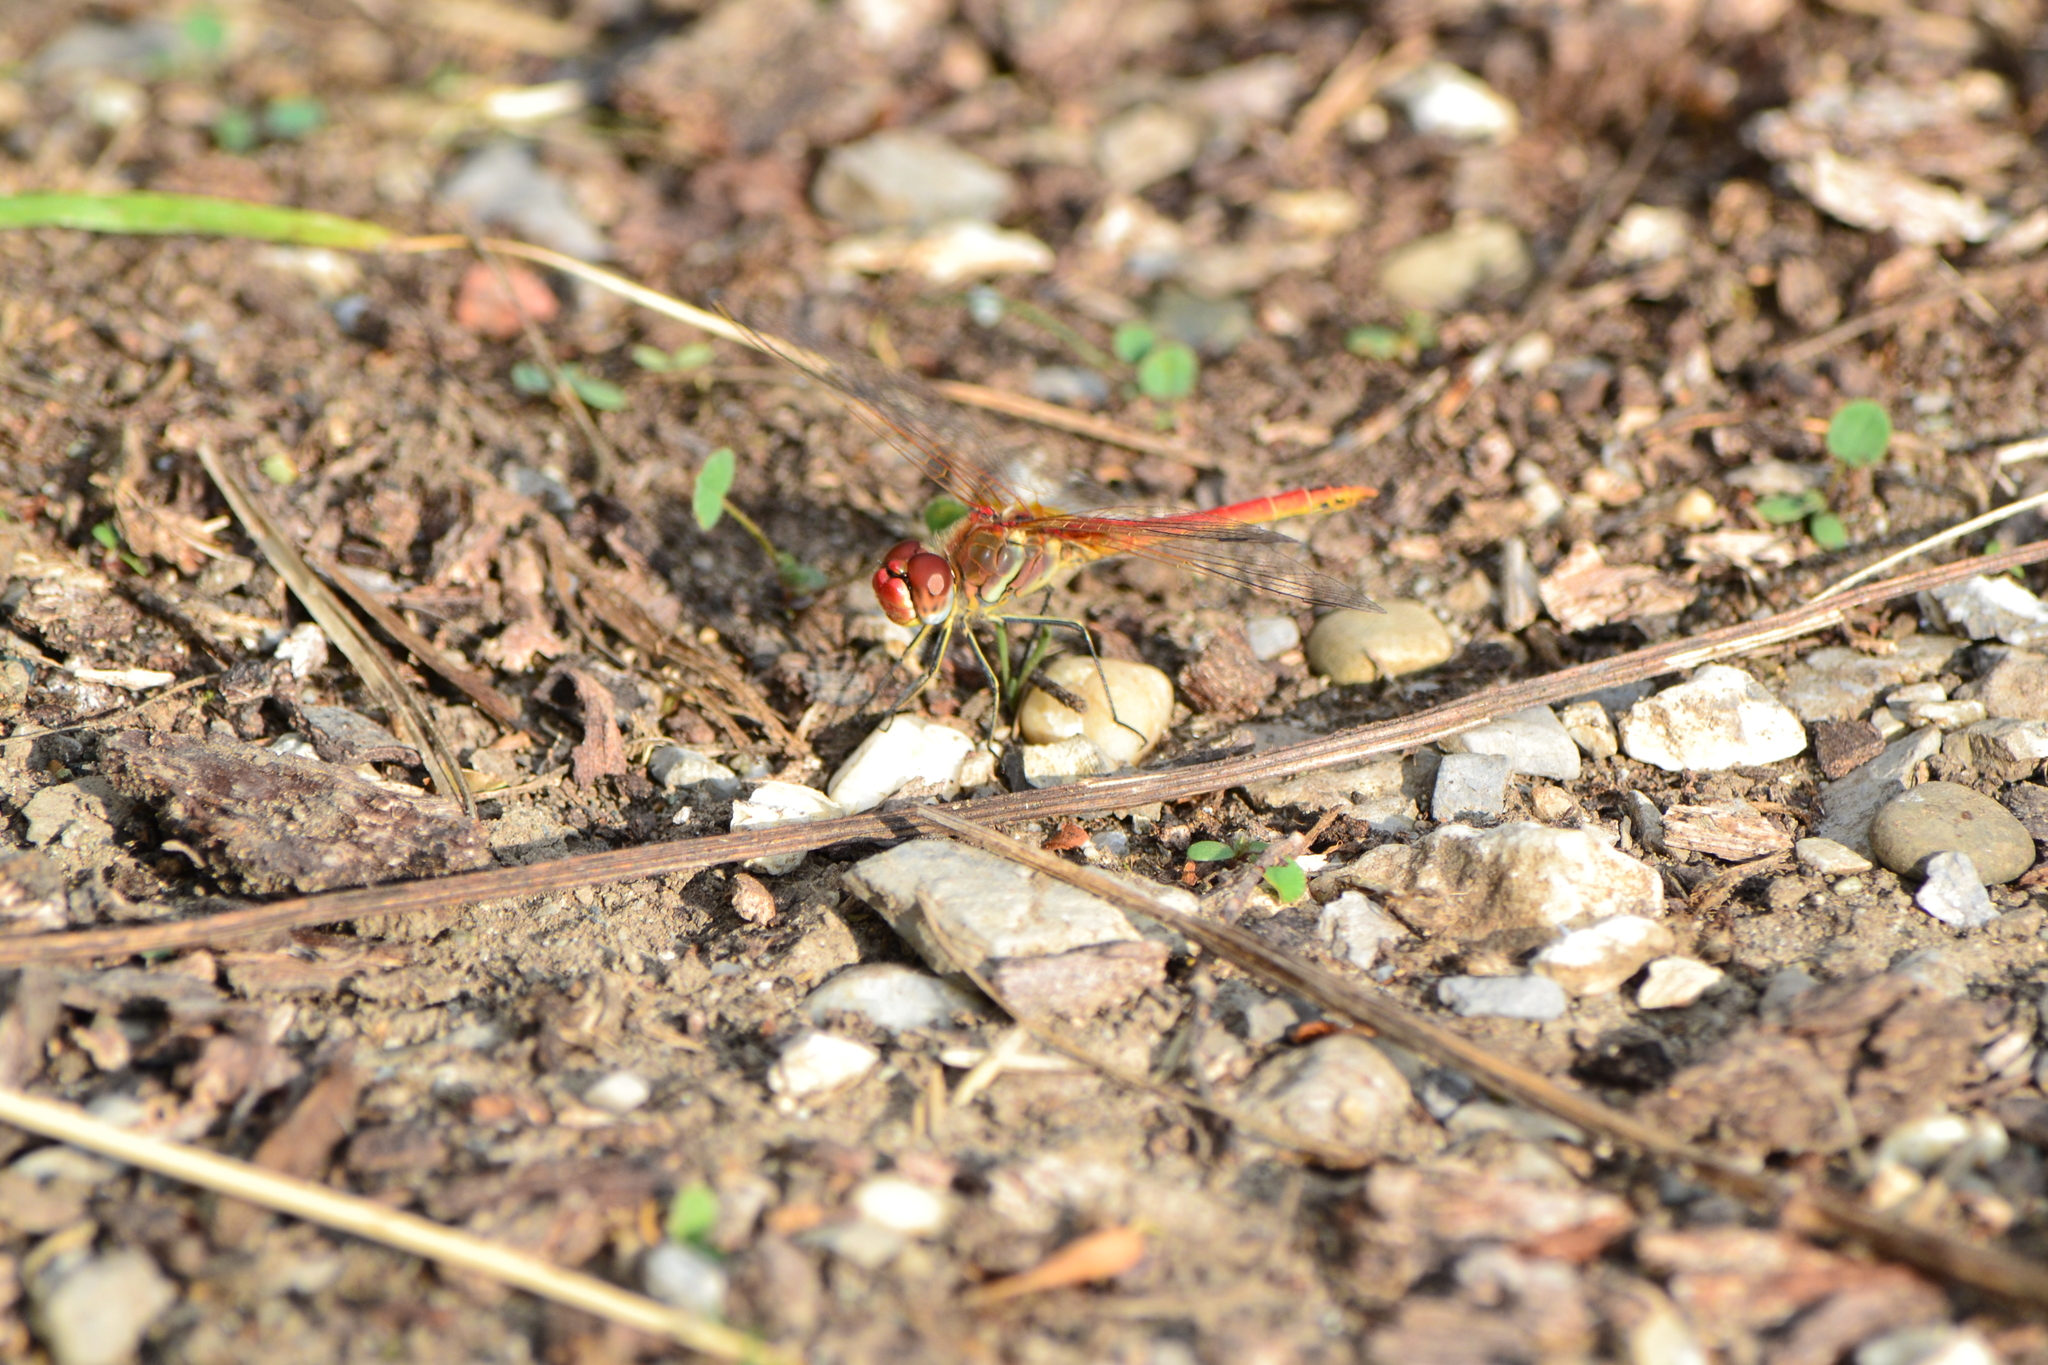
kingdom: Animalia
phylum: Arthropoda
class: Insecta
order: Odonata
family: Libellulidae
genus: Sympetrum
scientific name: Sympetrum fonscolombii
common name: Red-veined darter
